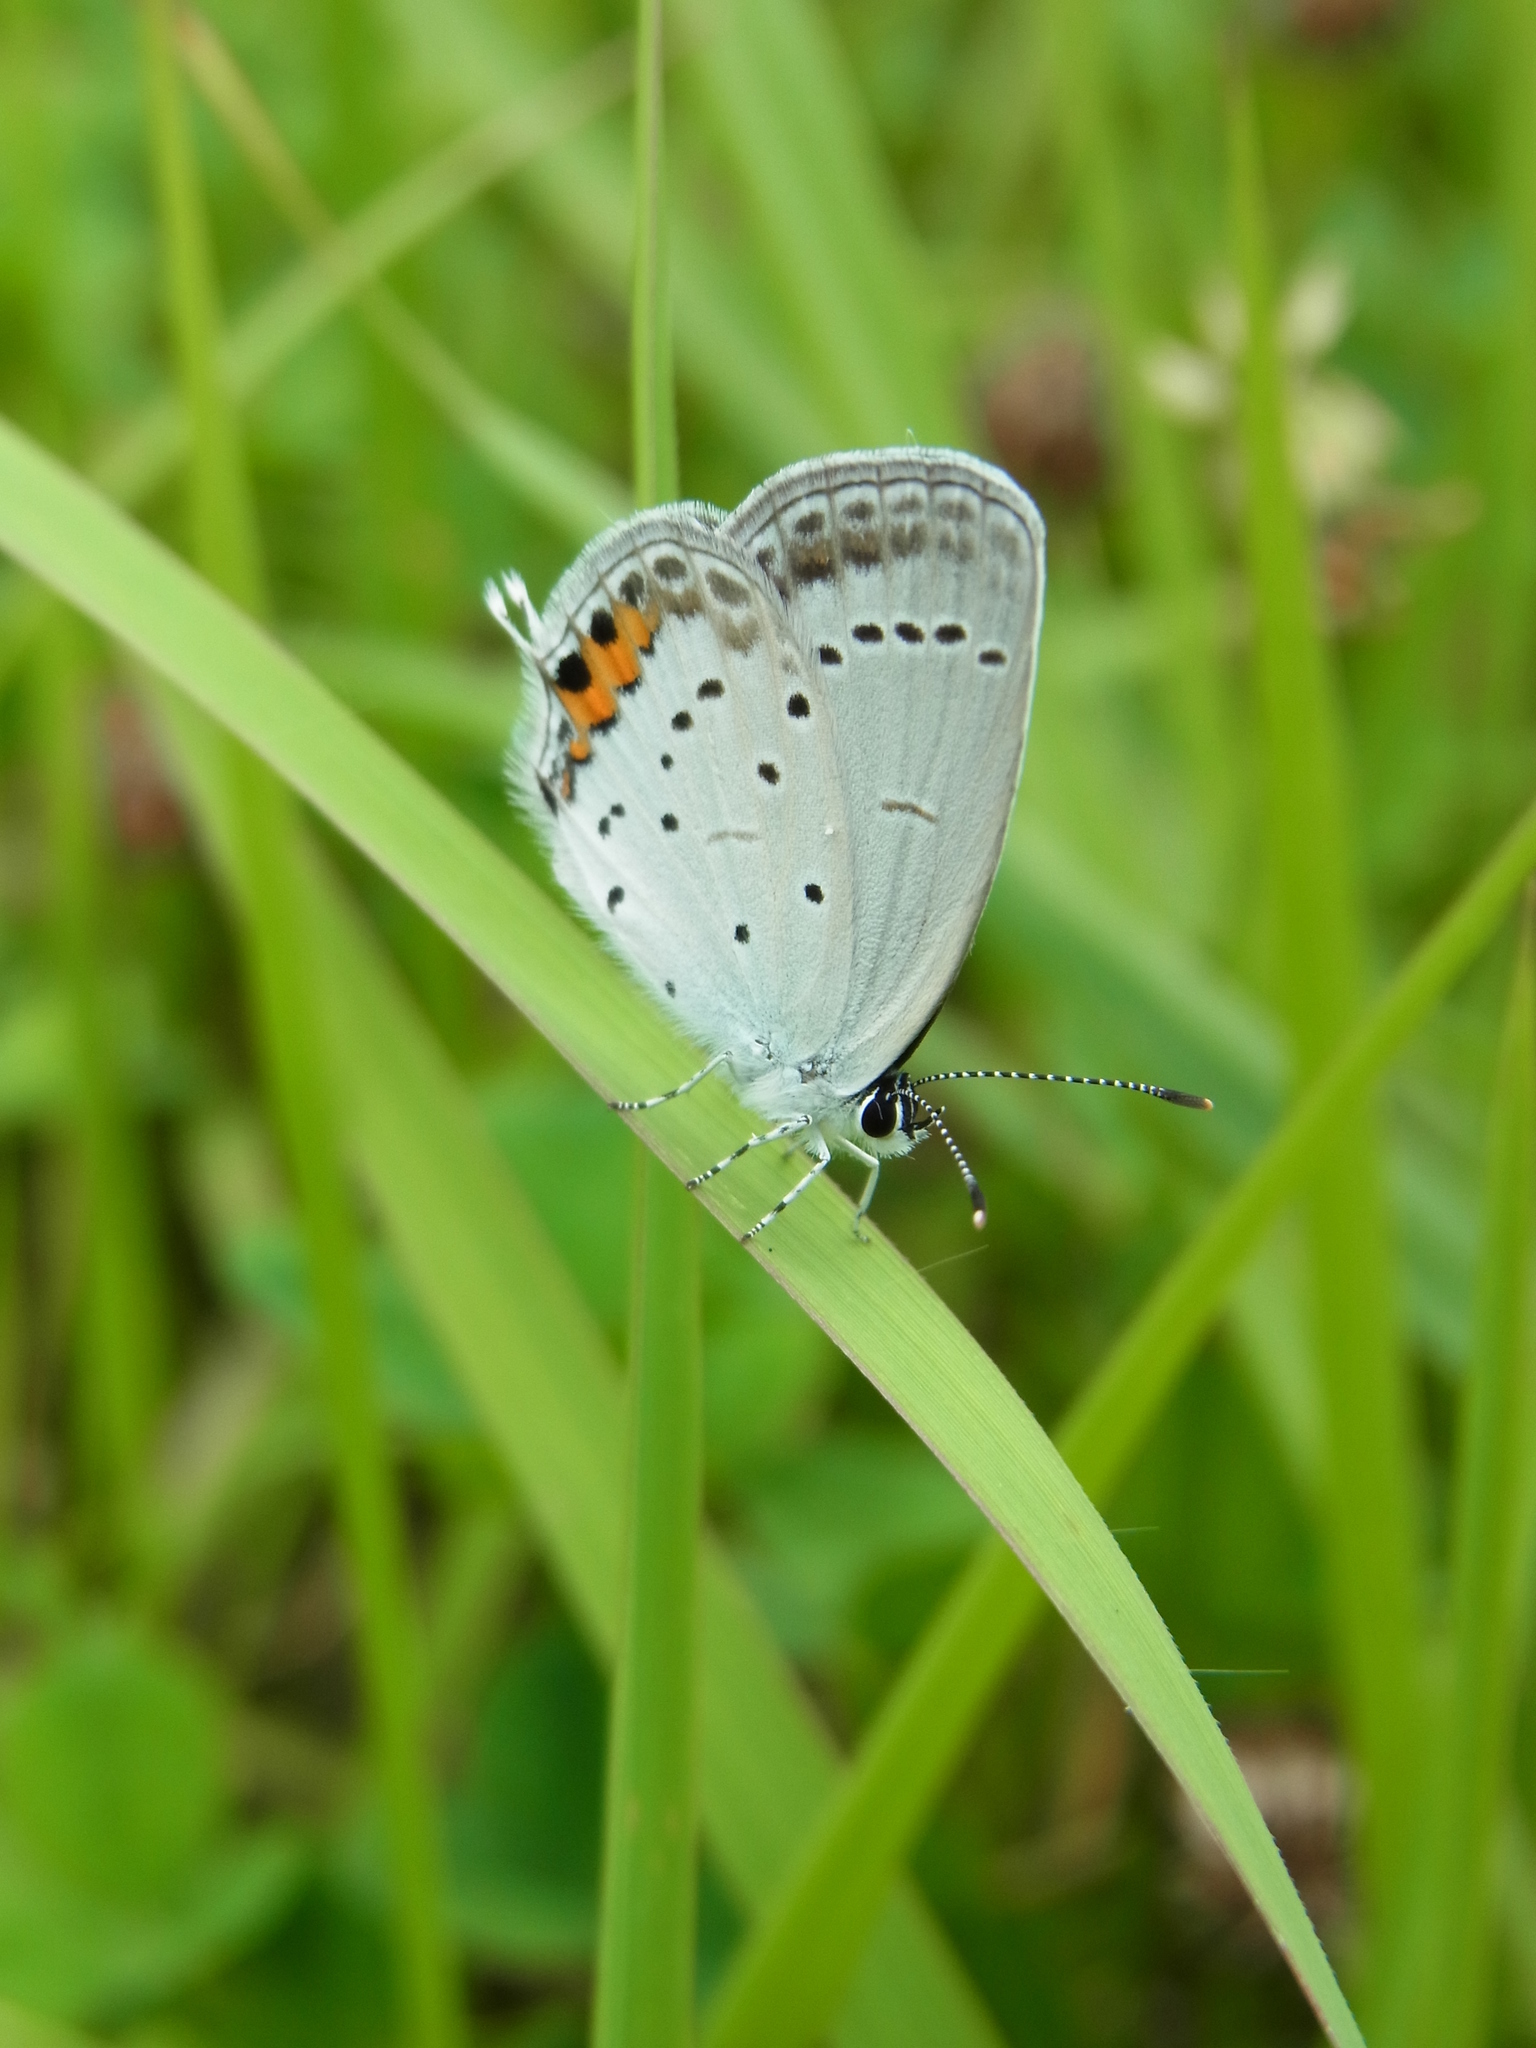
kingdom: Animalia
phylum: Arthropoda
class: Insecta
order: Lepidoptera
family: Lycaenidae
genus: Elkalyce
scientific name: Elkalyce argiades
